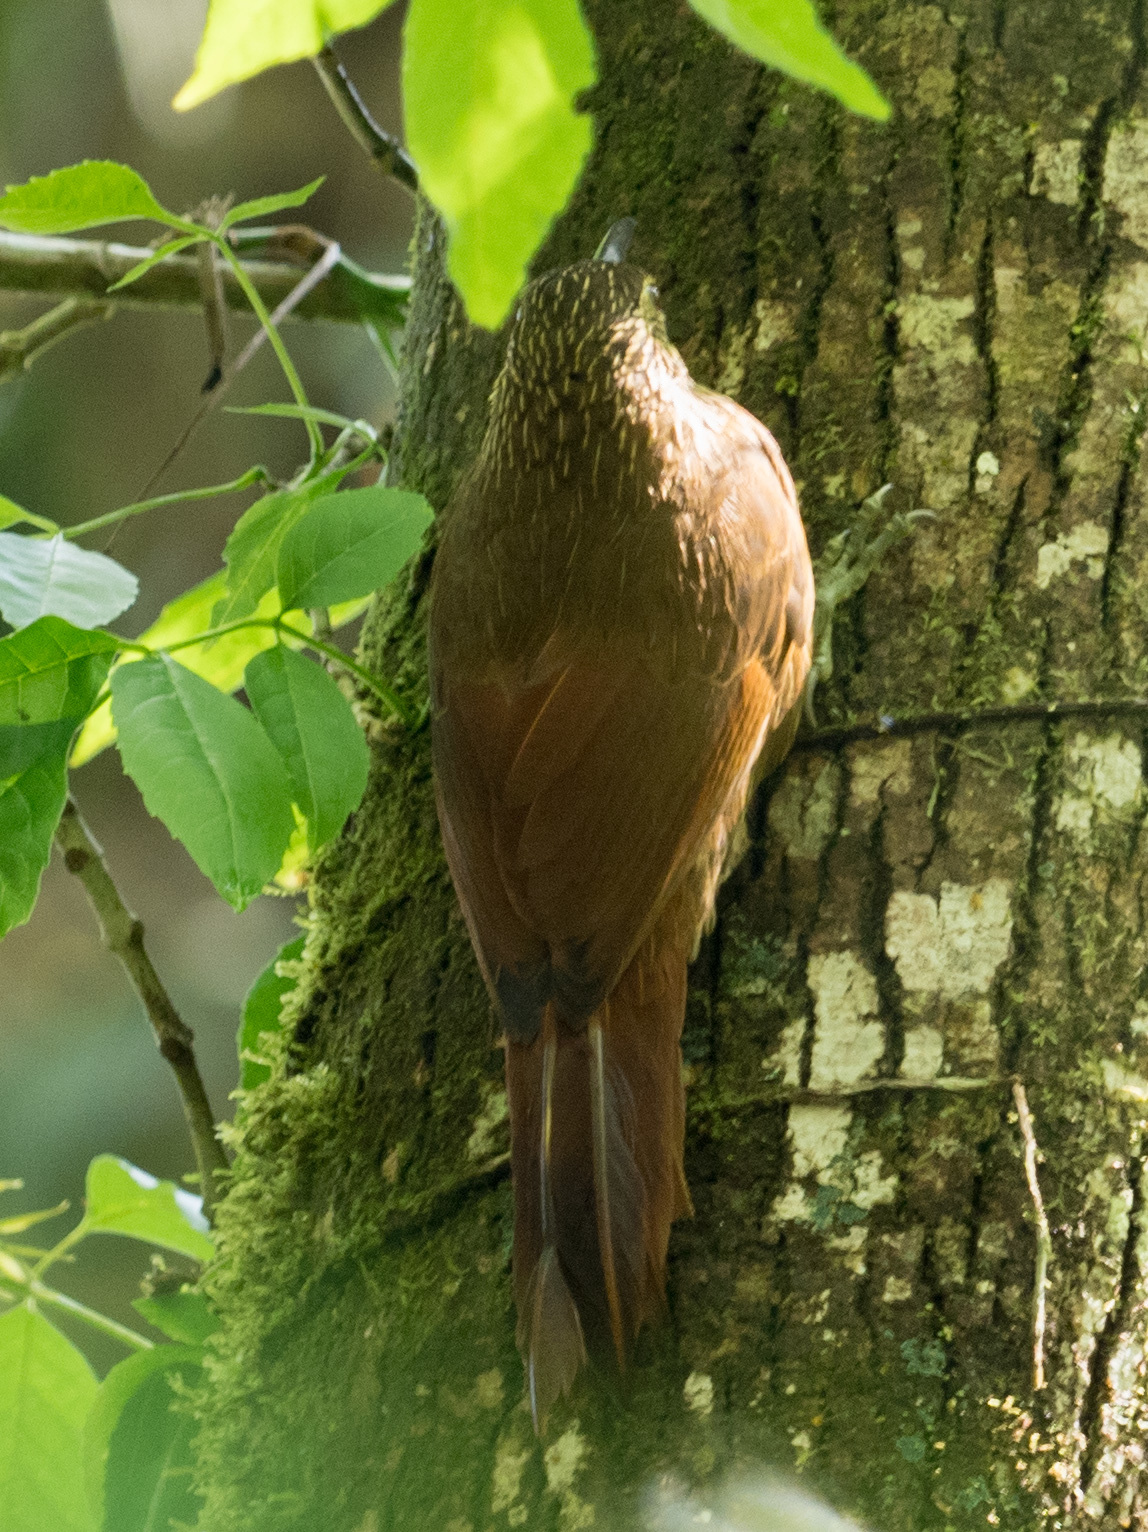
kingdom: Animalia
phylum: Chordata
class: Aves
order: Passeriformes
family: Furnariidae
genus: Xiphocolaptes
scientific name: Xiphocolaptes promeropirhynchus
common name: Strong-billed woodcreeper
